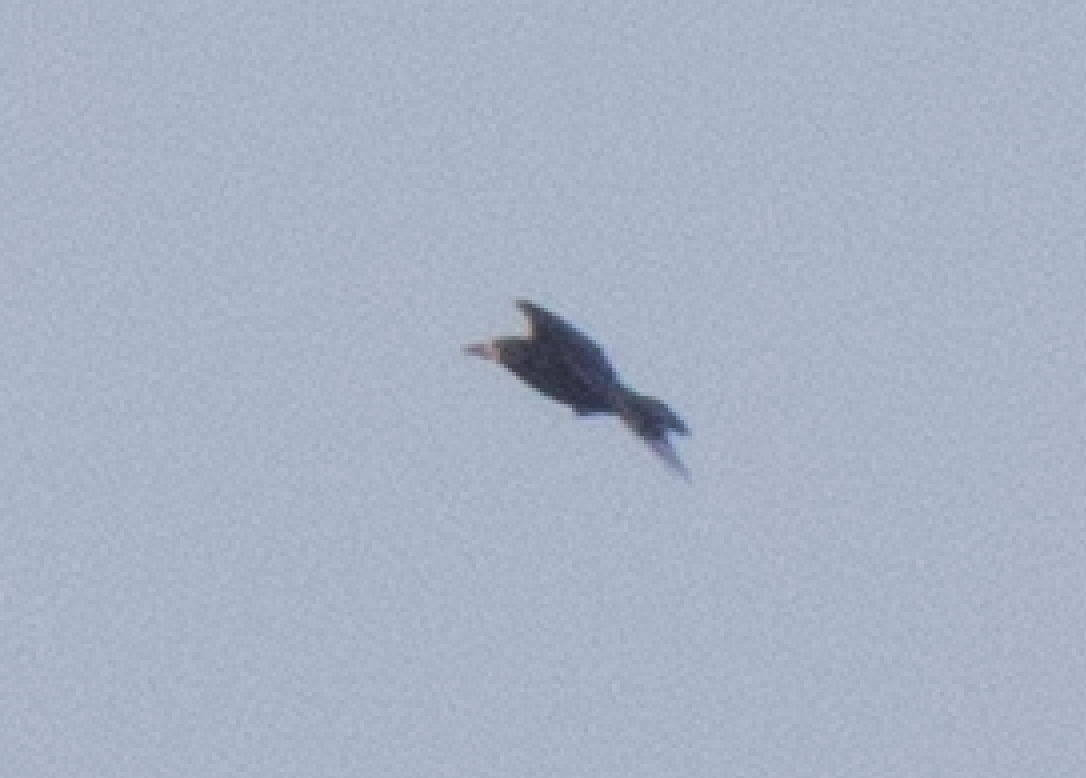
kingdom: Animalia
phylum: Chordata
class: Aves
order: Passeriformes
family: Corvidae
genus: Corvus
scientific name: Corvus frugilegus
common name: Rook
